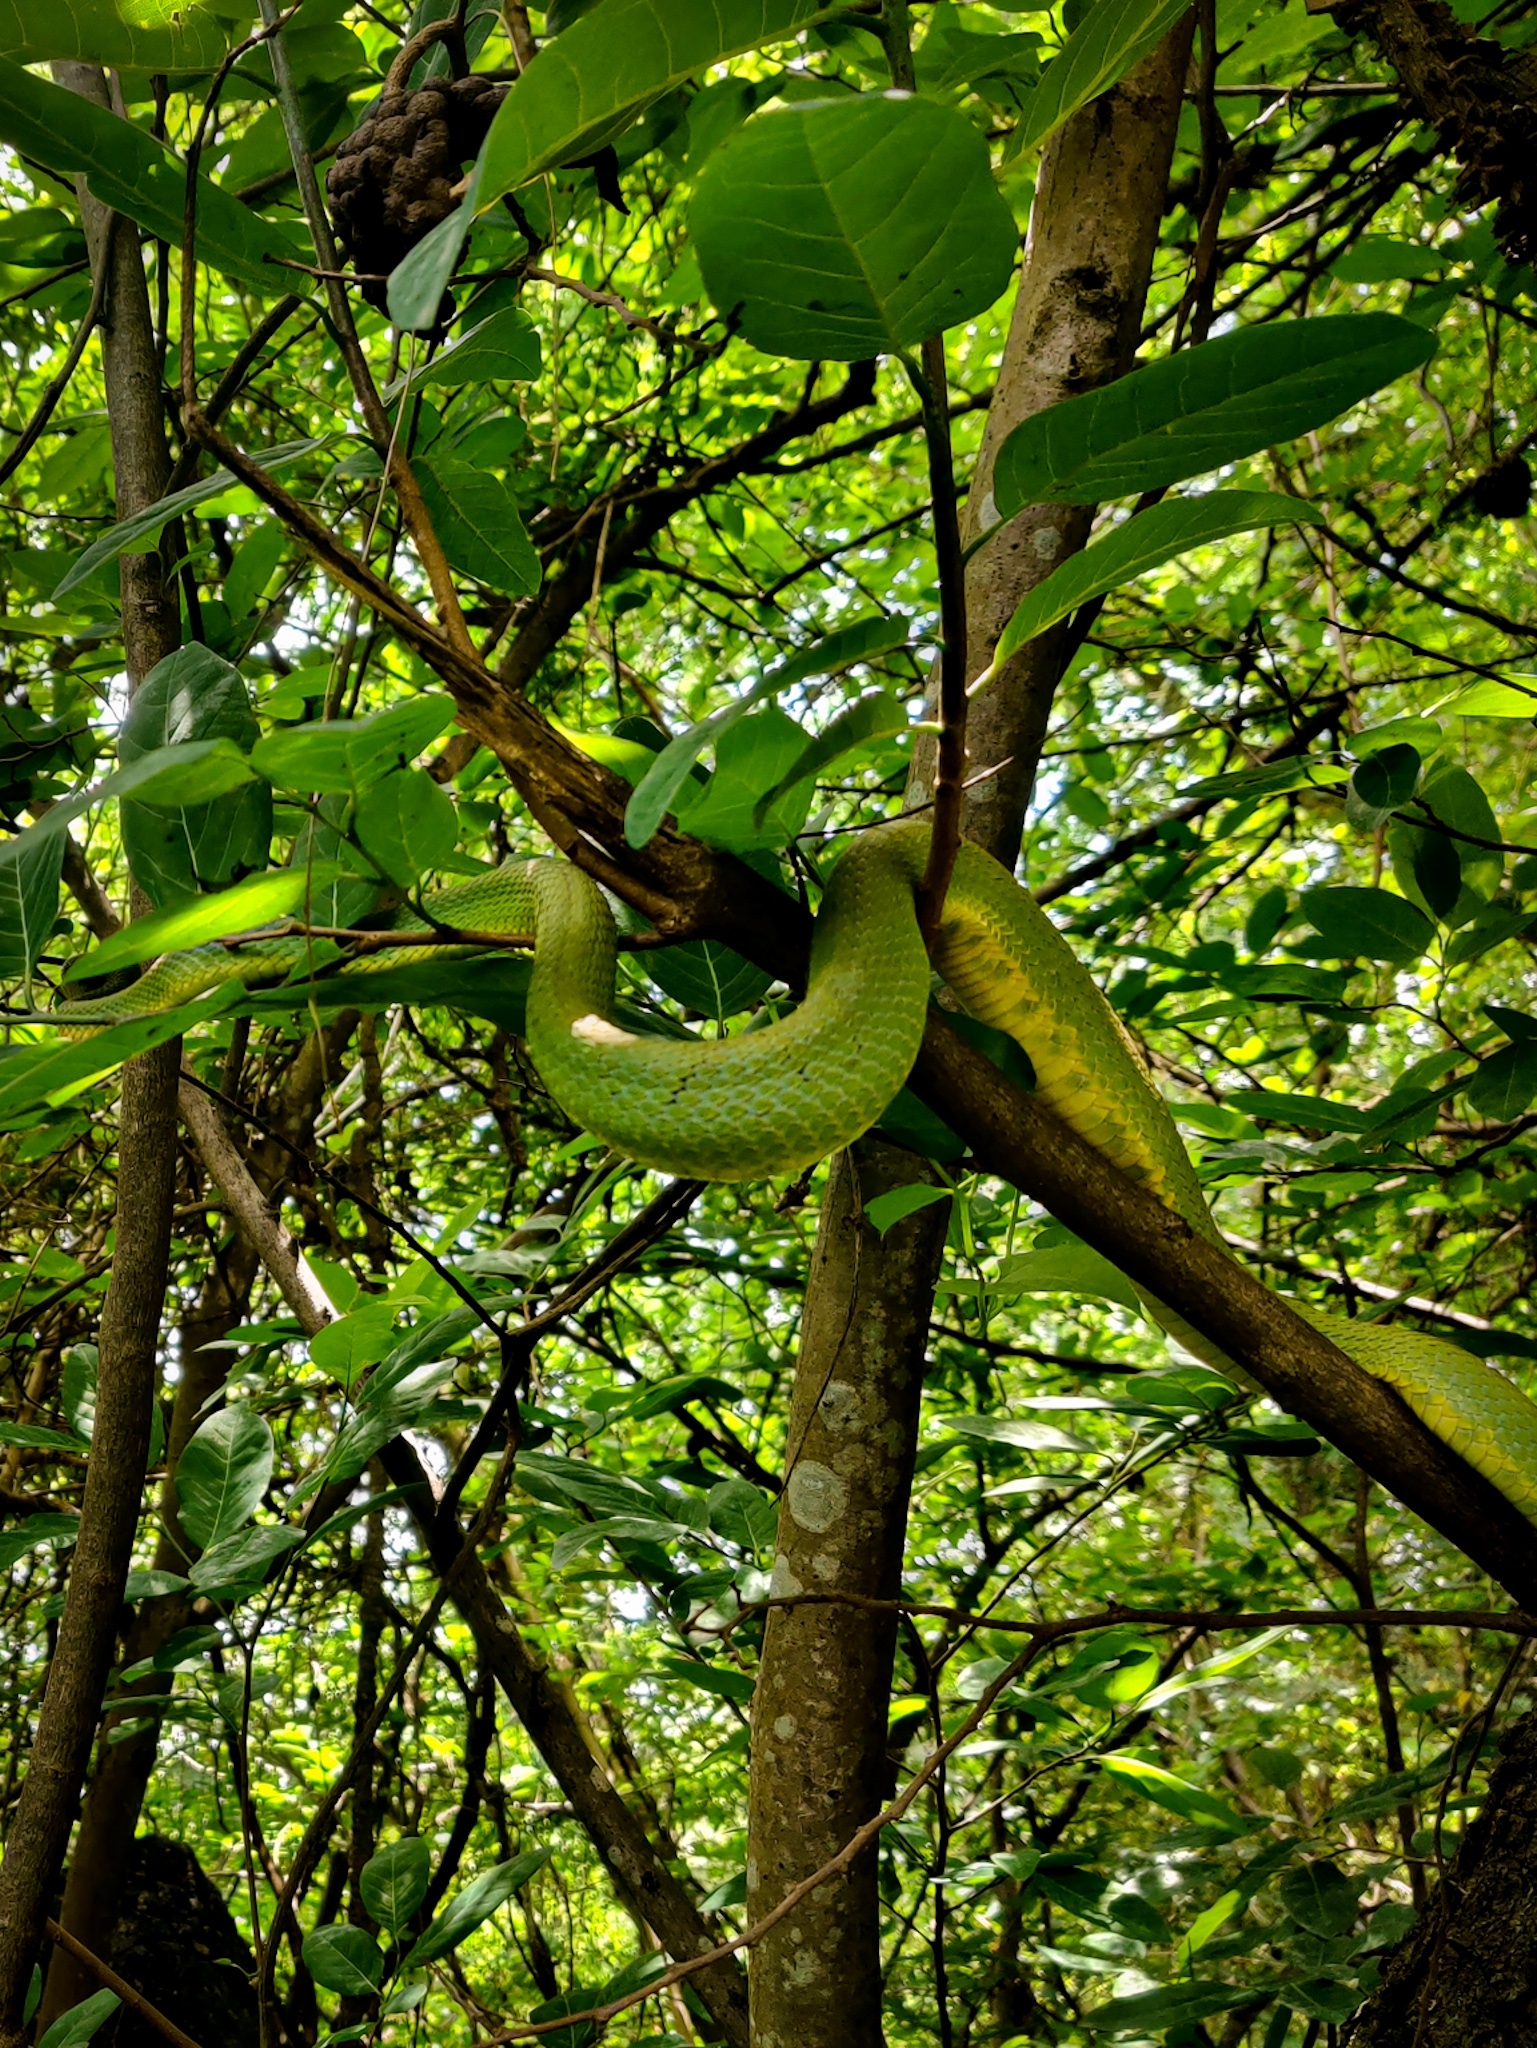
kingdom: Animalia
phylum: Chordata
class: Squamata
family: Viperidae
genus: Craspedocephalus
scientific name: Craspedocephalus gramineus
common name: Common bamboo viper
